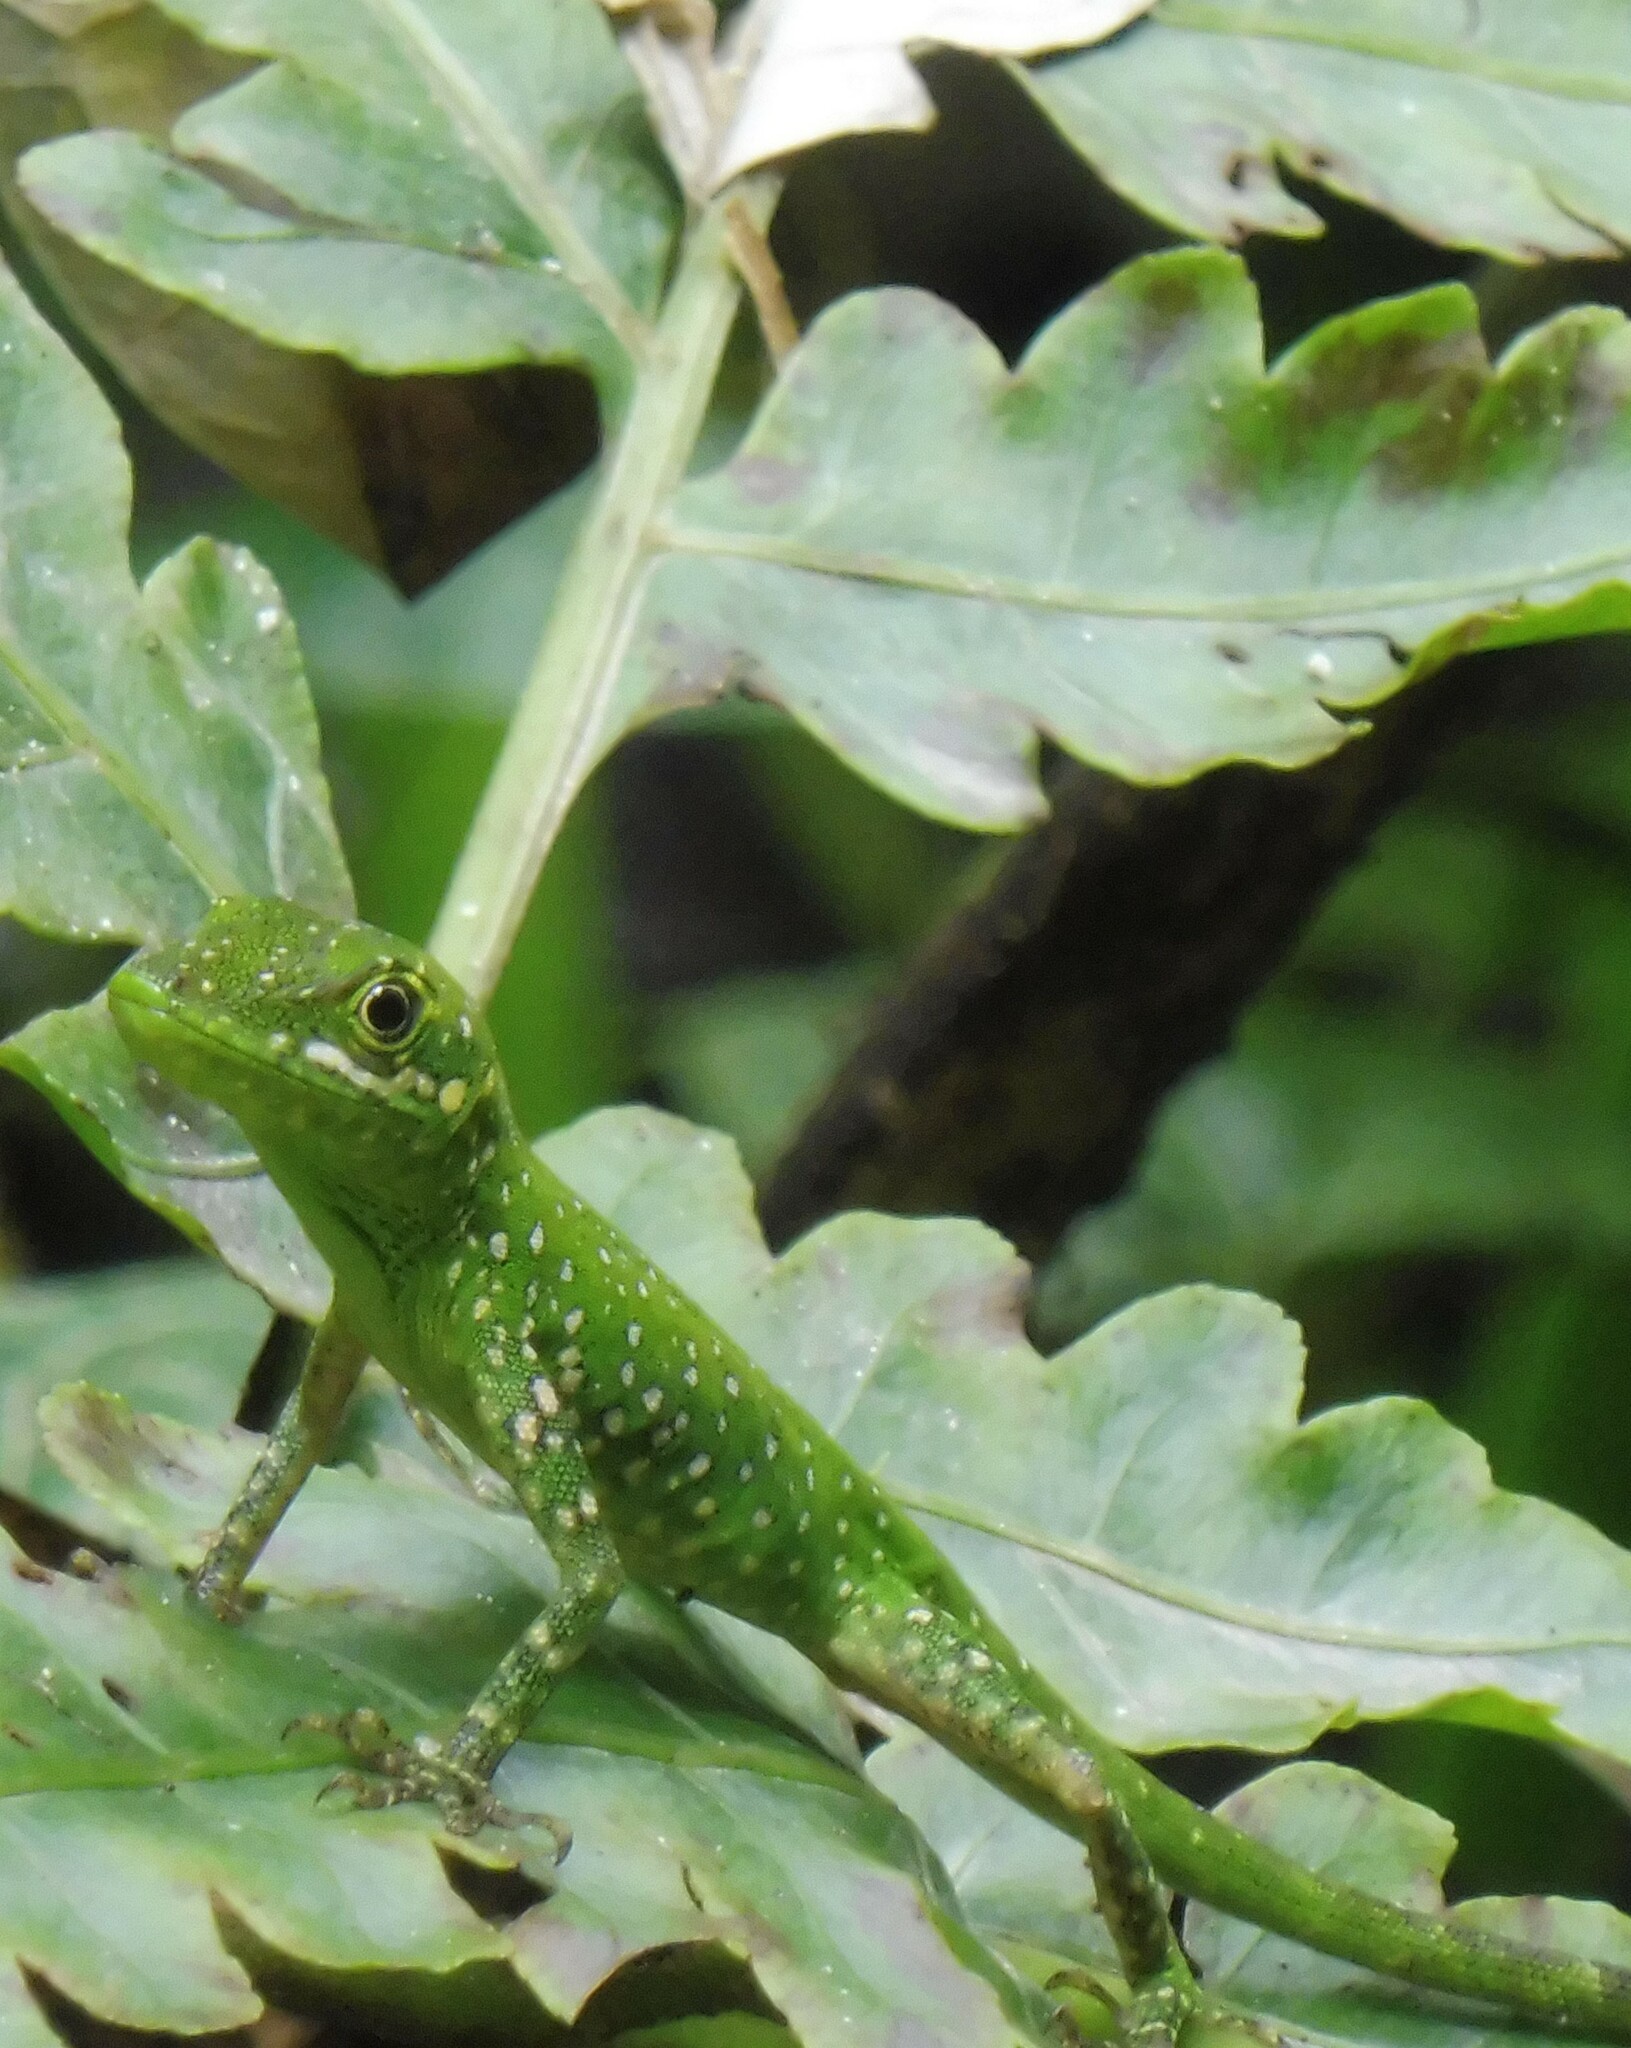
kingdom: Animalia
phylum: Chordata
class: Squamata
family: Dactyloidae
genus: Anolis
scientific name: Anolis gemmosus
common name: O'shaughnessy's anole
